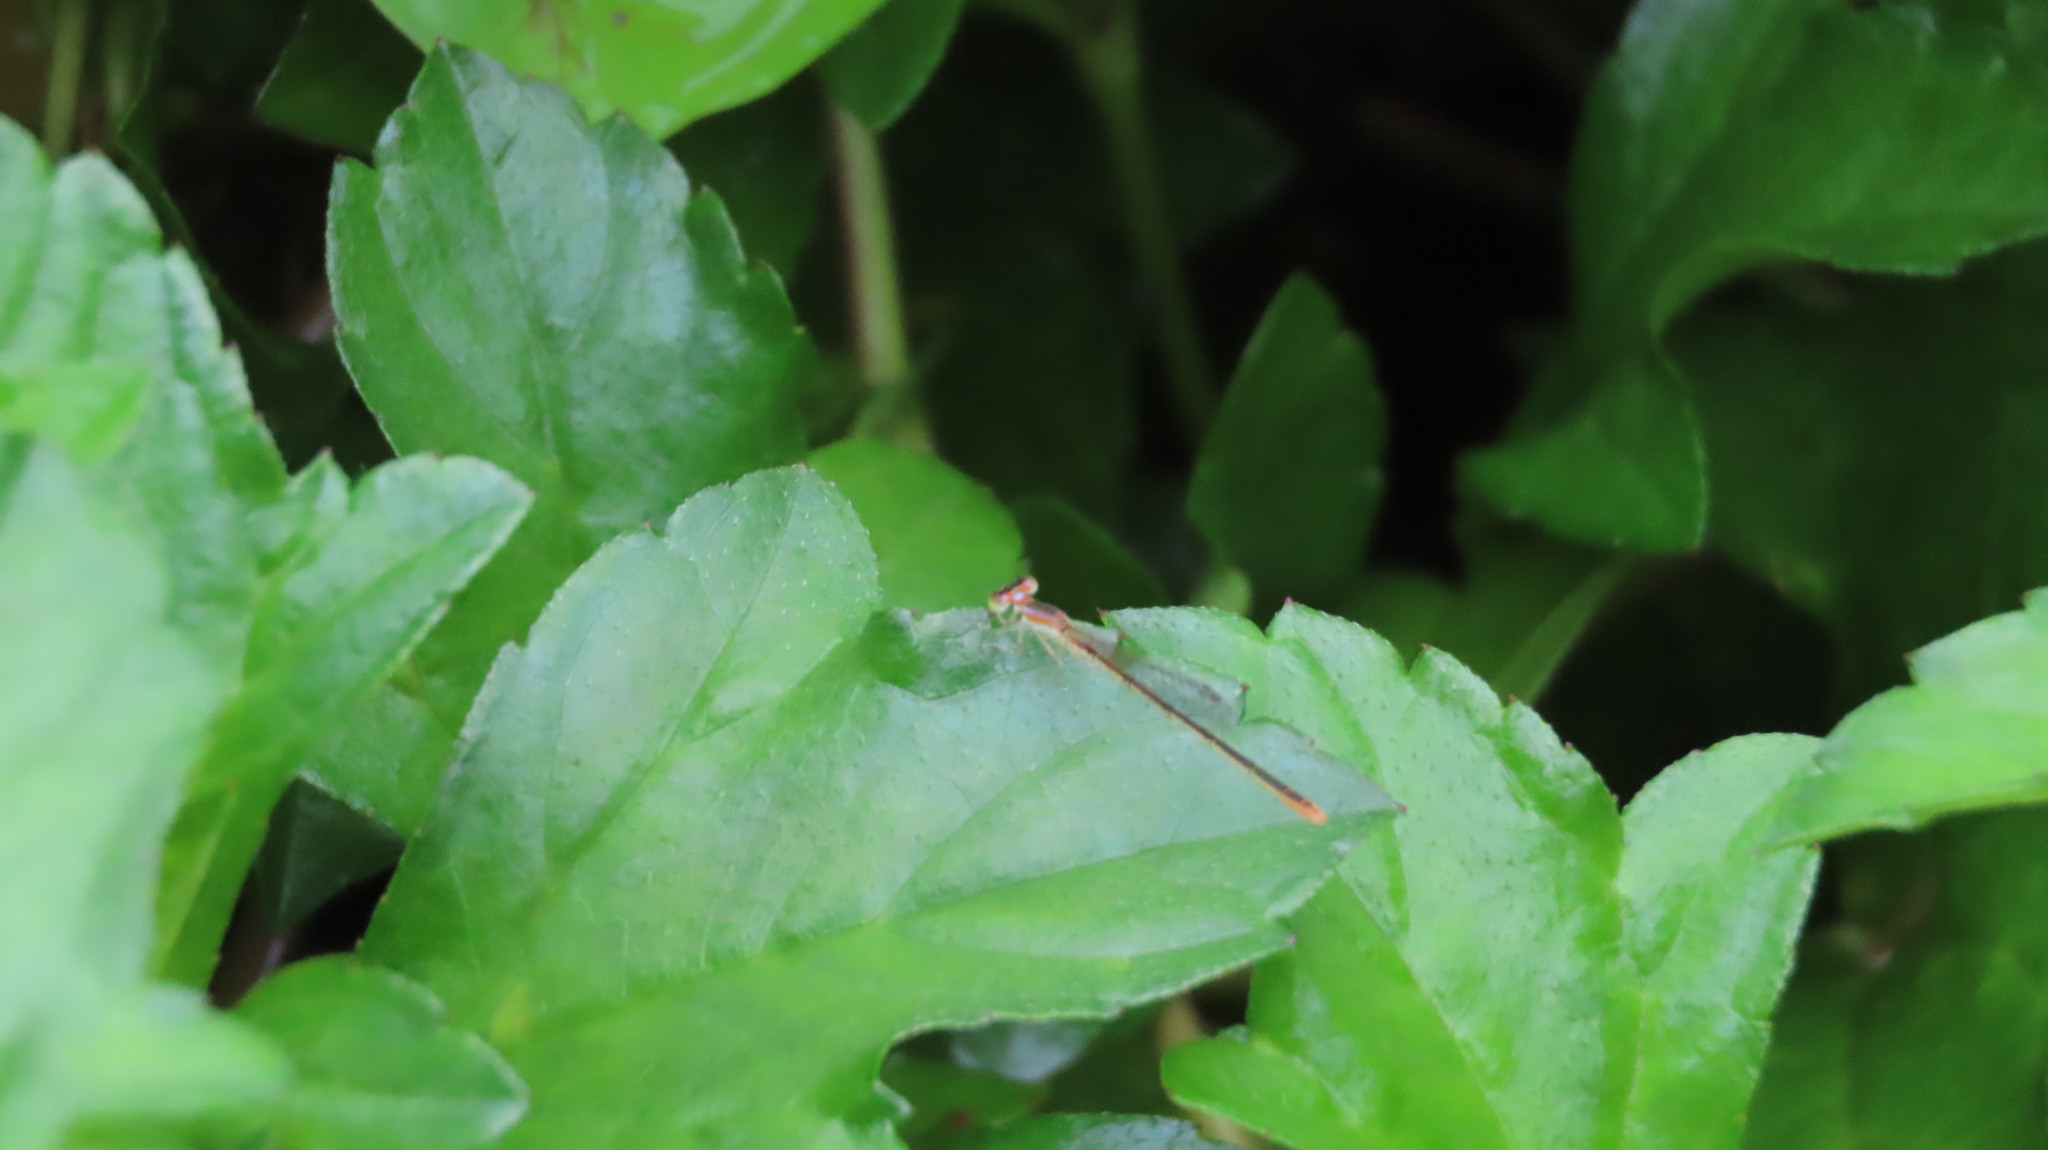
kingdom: Animalia
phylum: Arthropoda
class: Insecta
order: Odonata
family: Coenagrionidae
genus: Agriocnemis
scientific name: Agriocnemis pygmaea
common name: Pygmy wisp
